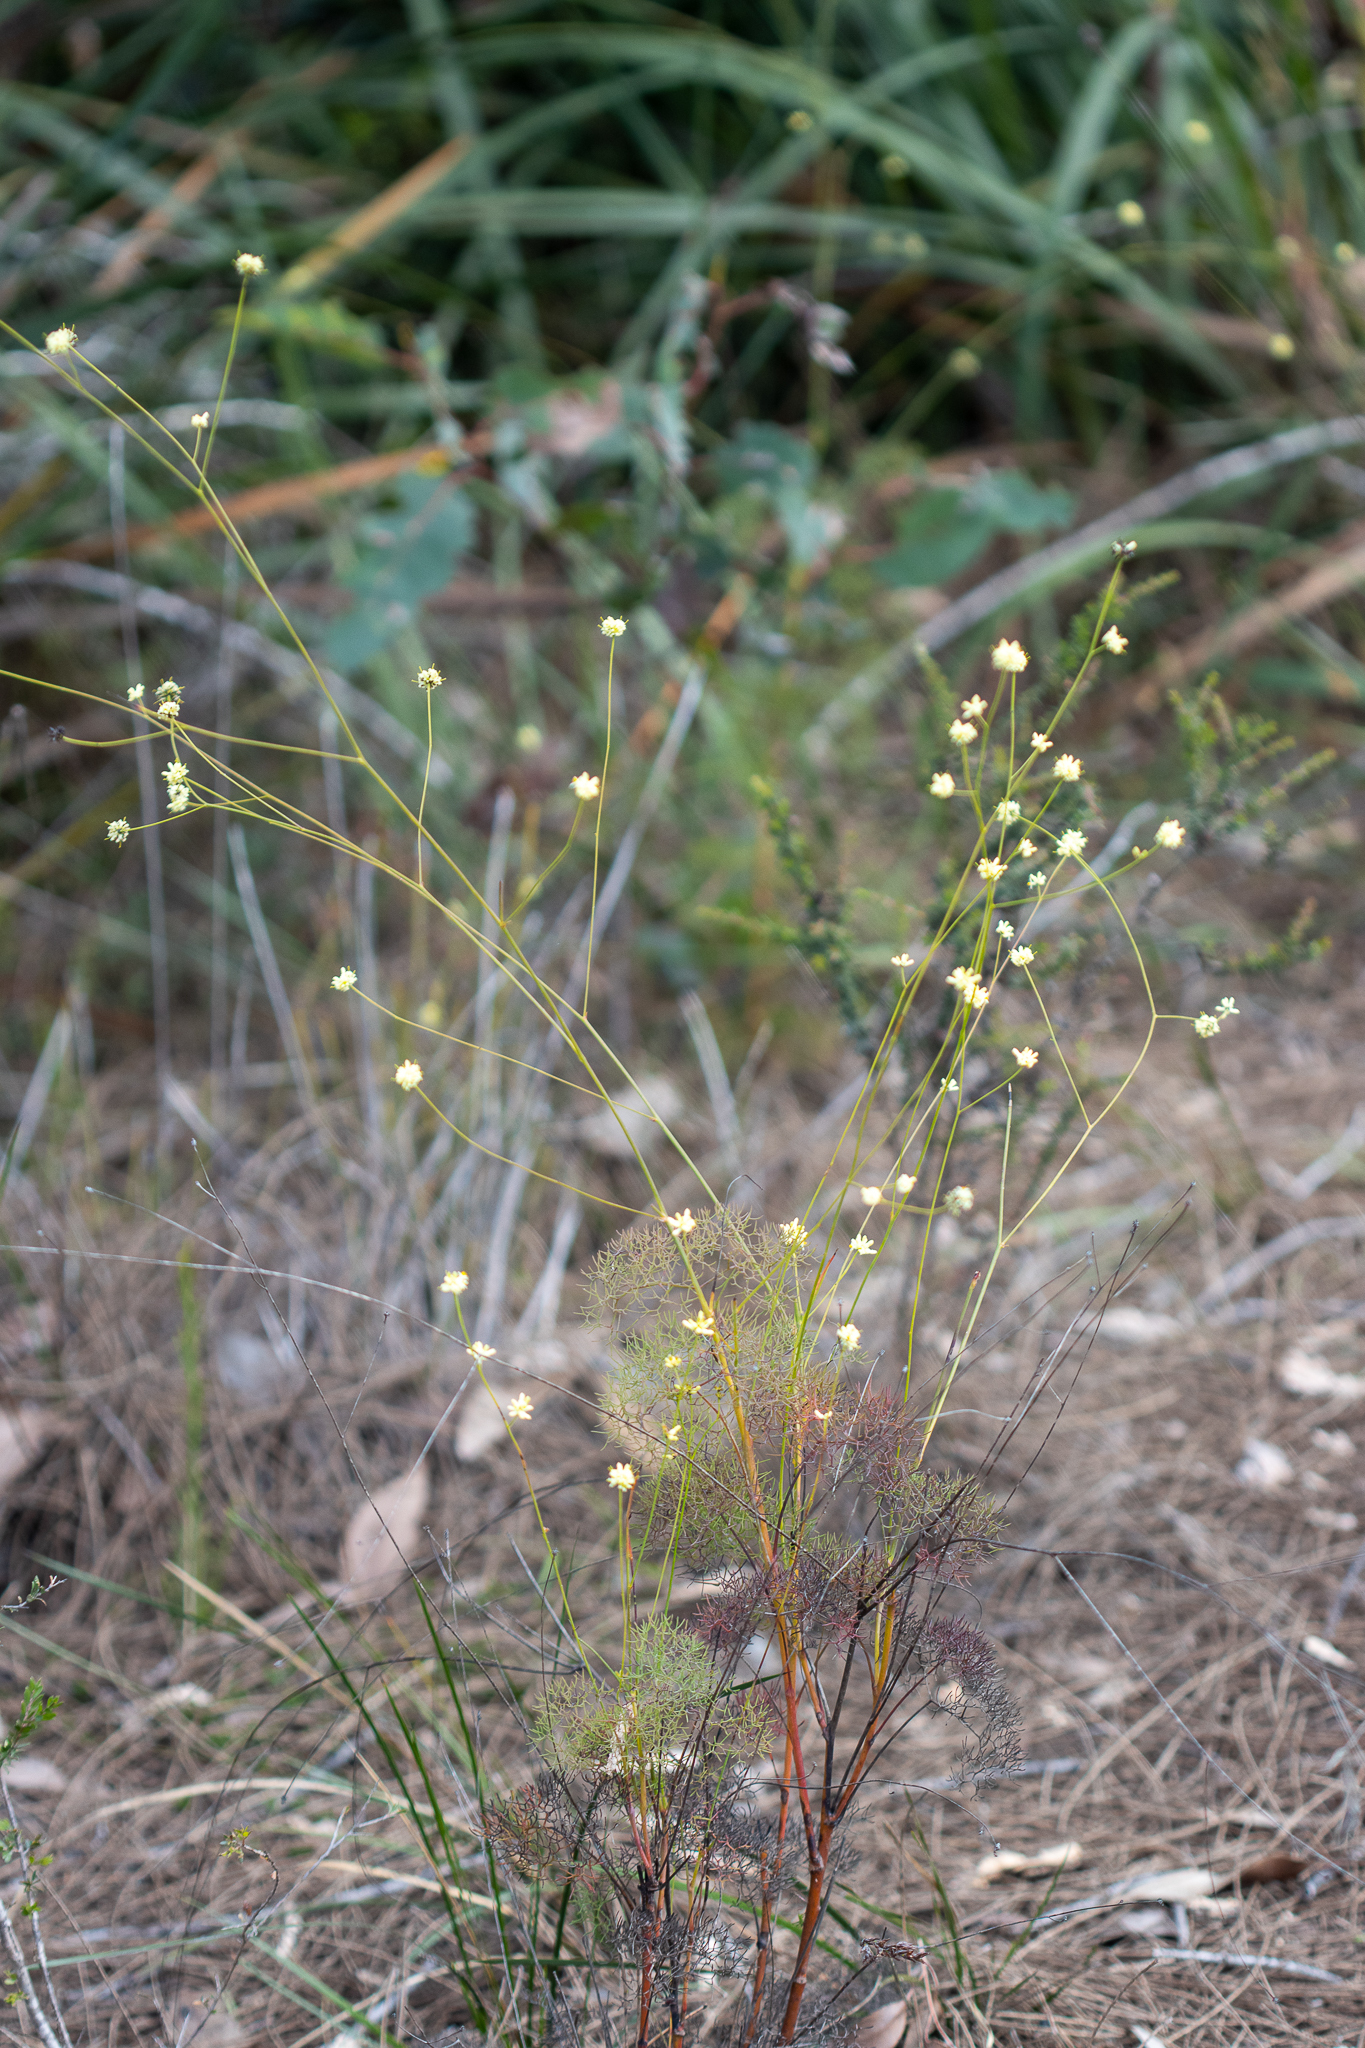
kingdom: Plantae
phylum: Tracheophyta
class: Magnoliopsida
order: Proteales
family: Proteaceae
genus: Stirlingia
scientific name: Stirlingia tenuifolia
